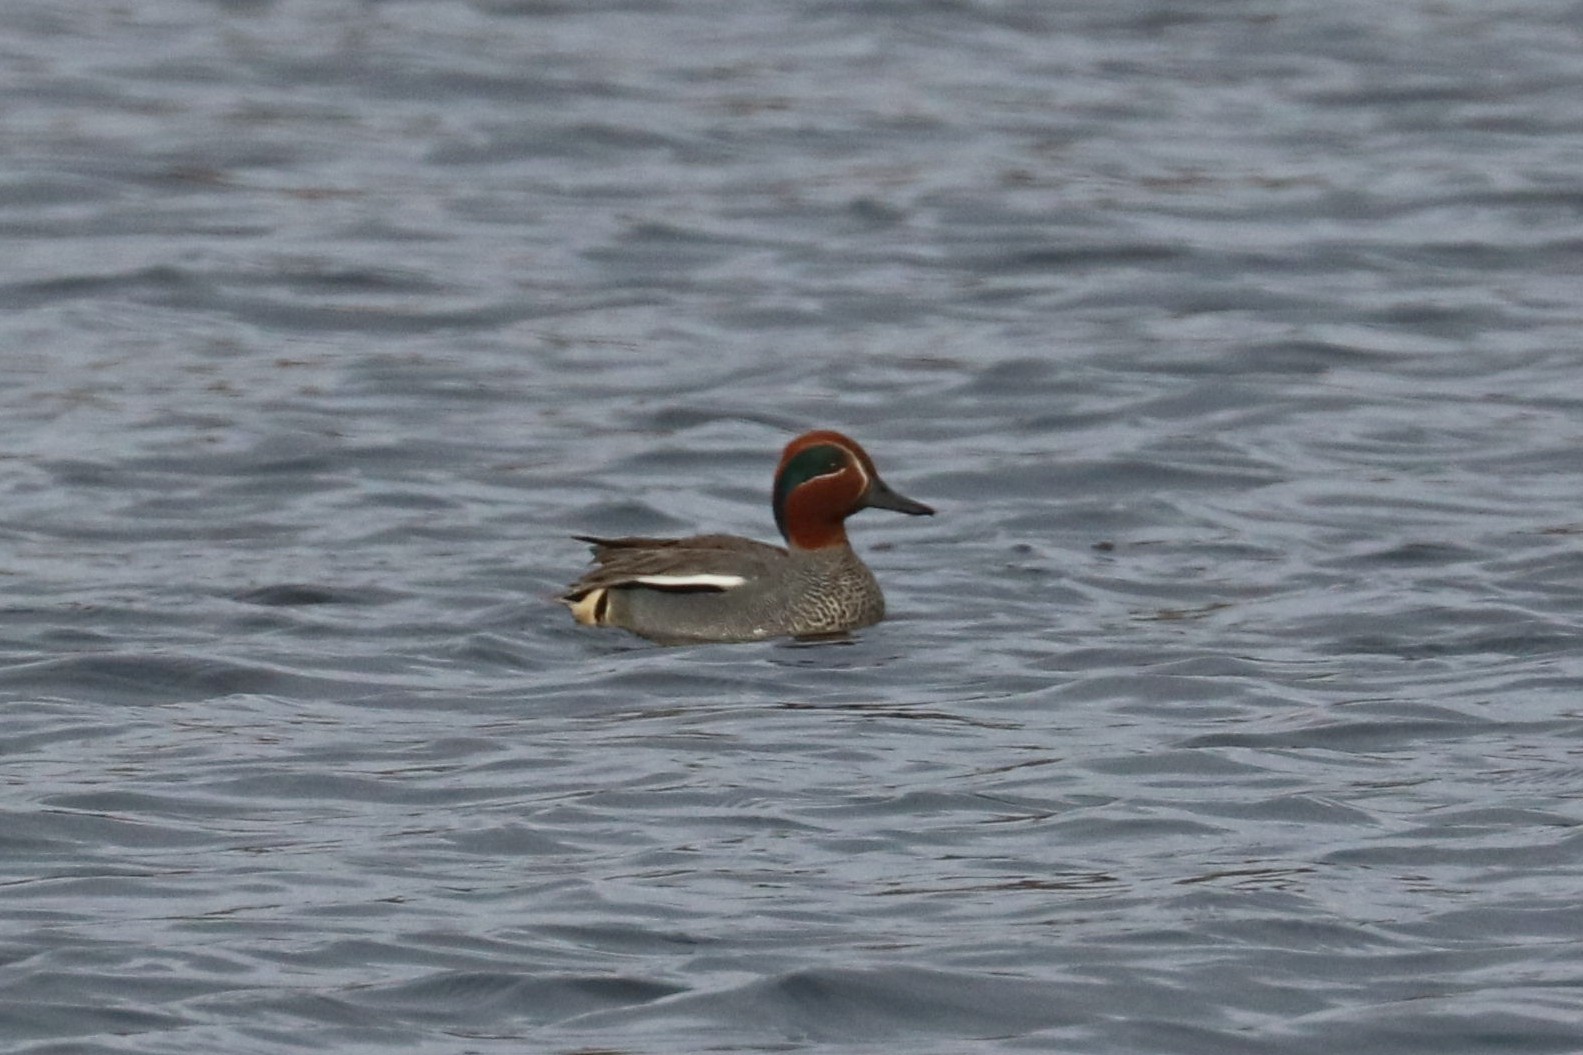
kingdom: Animalia
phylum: Chordata
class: Aves
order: Anseriformes
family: Anatidae
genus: Anas
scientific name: Anas crecca
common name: Eurasian teal
